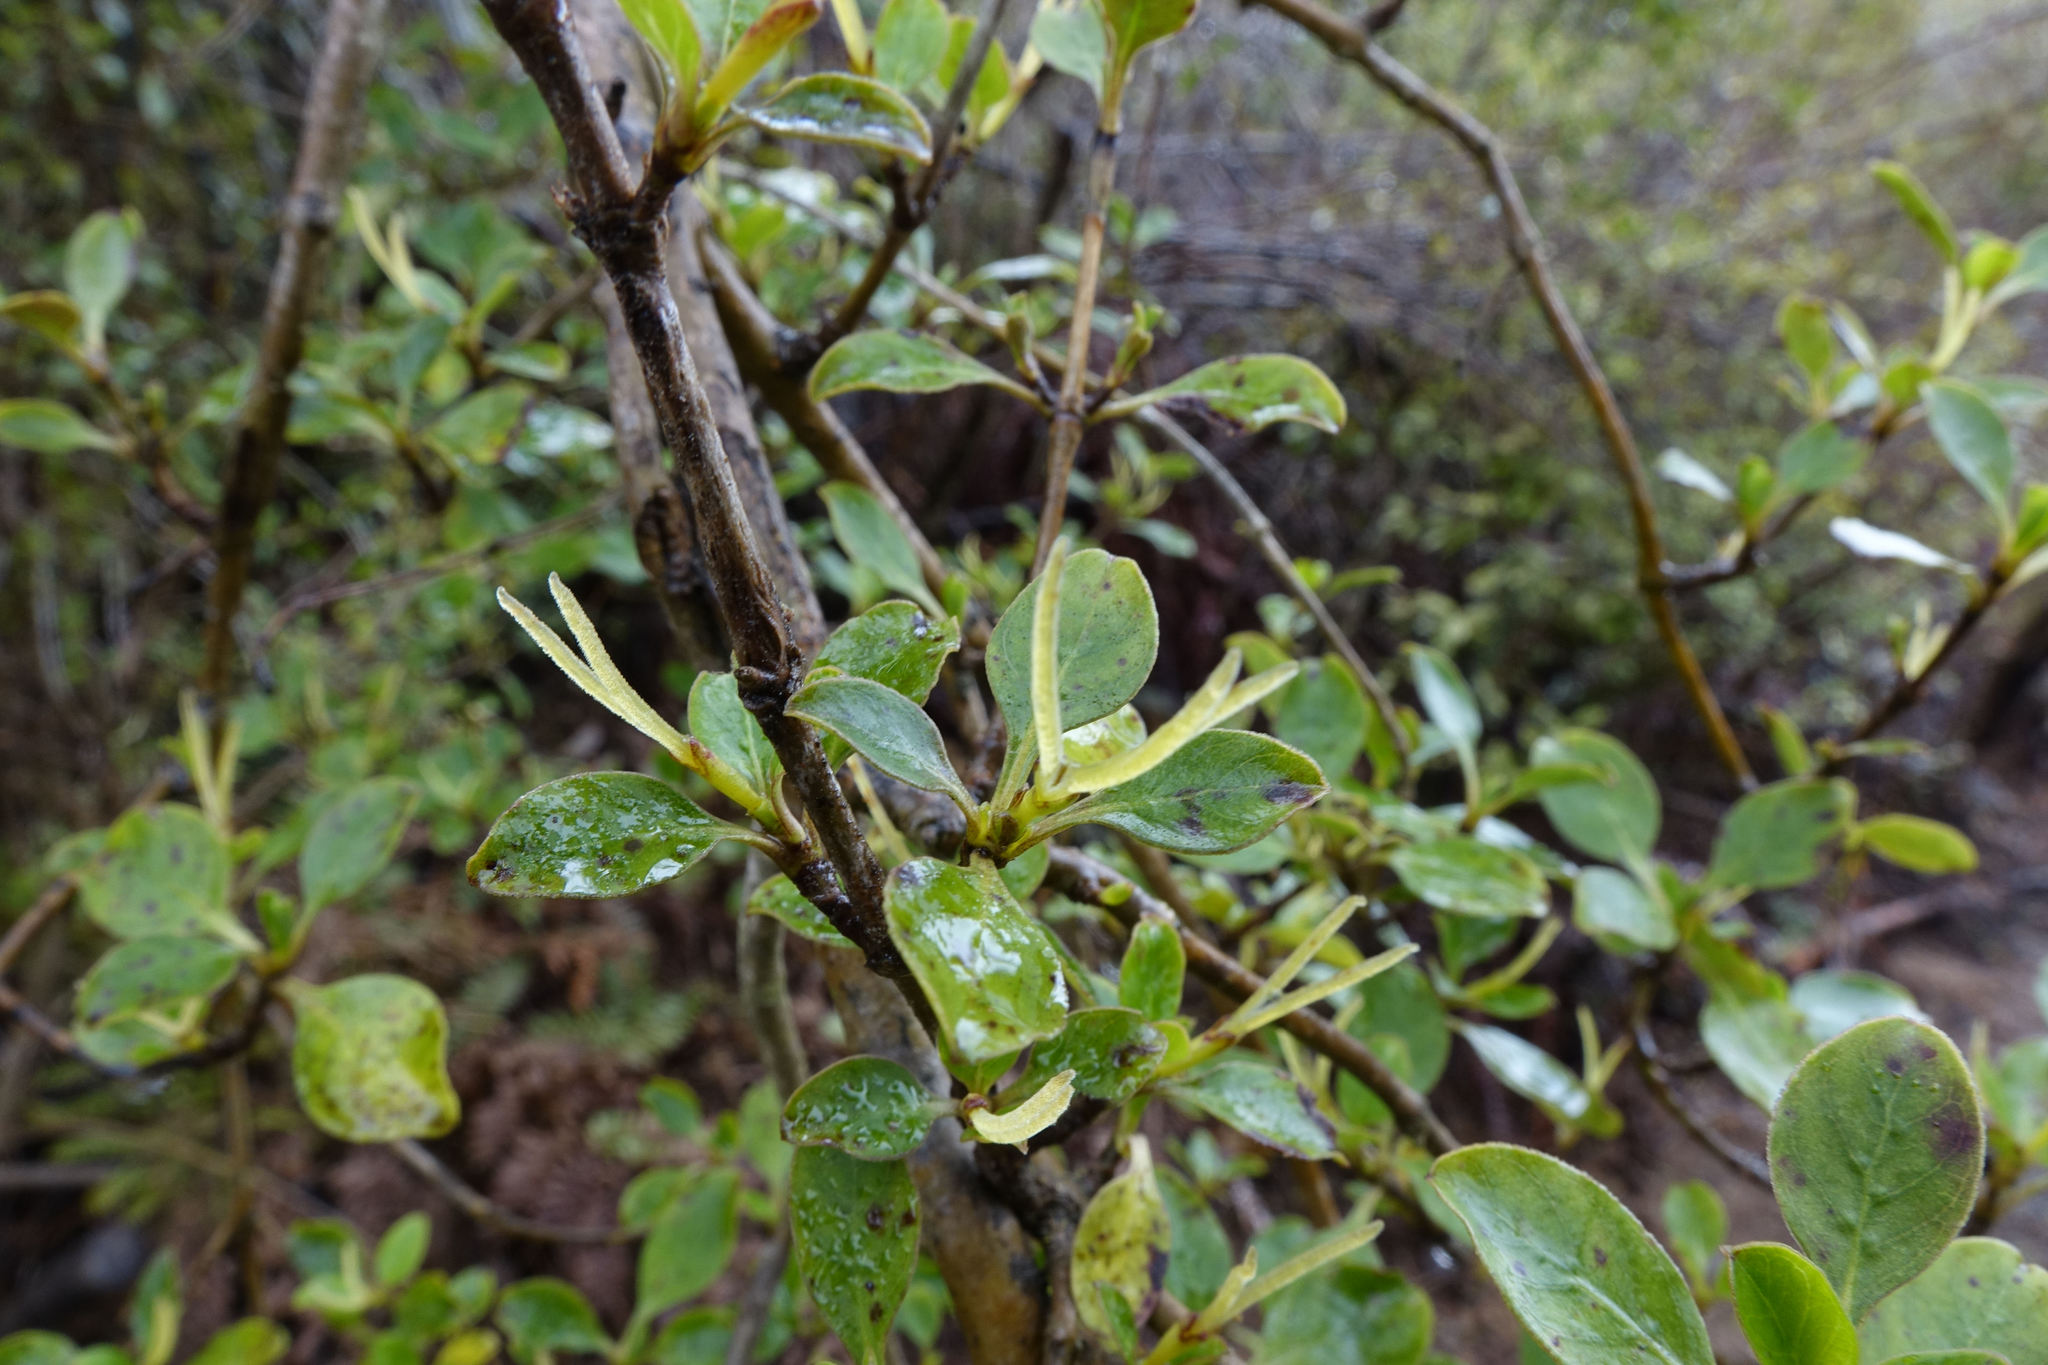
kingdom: Plantae
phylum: Tracheophyta
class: Magnoliopsida
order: Gentianales
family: Rubiaceae
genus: Coprosma
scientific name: Coprosma foetidissima
